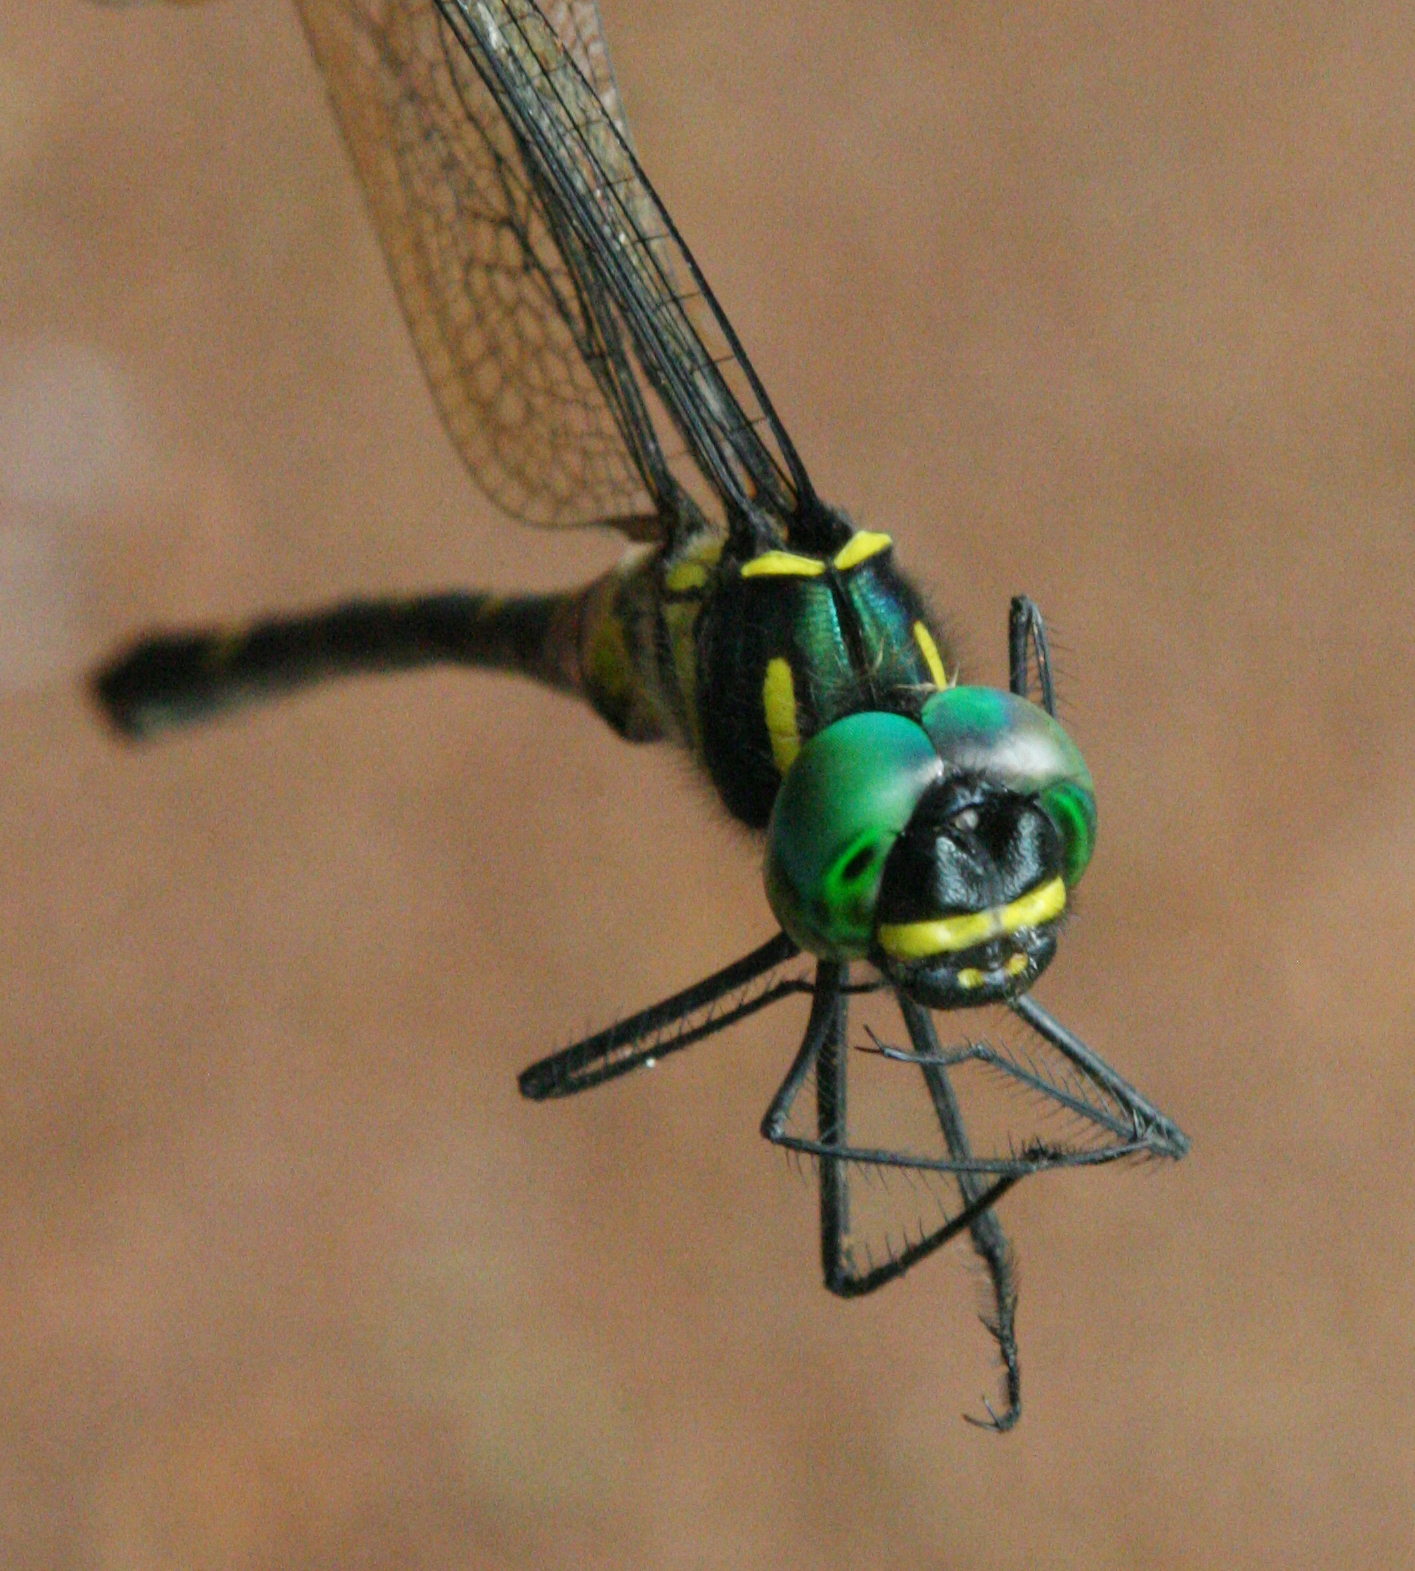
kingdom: Animalia
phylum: Arthropoda
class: Insecta
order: Odonata
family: Macromiidae
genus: Macromia
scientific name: Macromia flavocolorata
